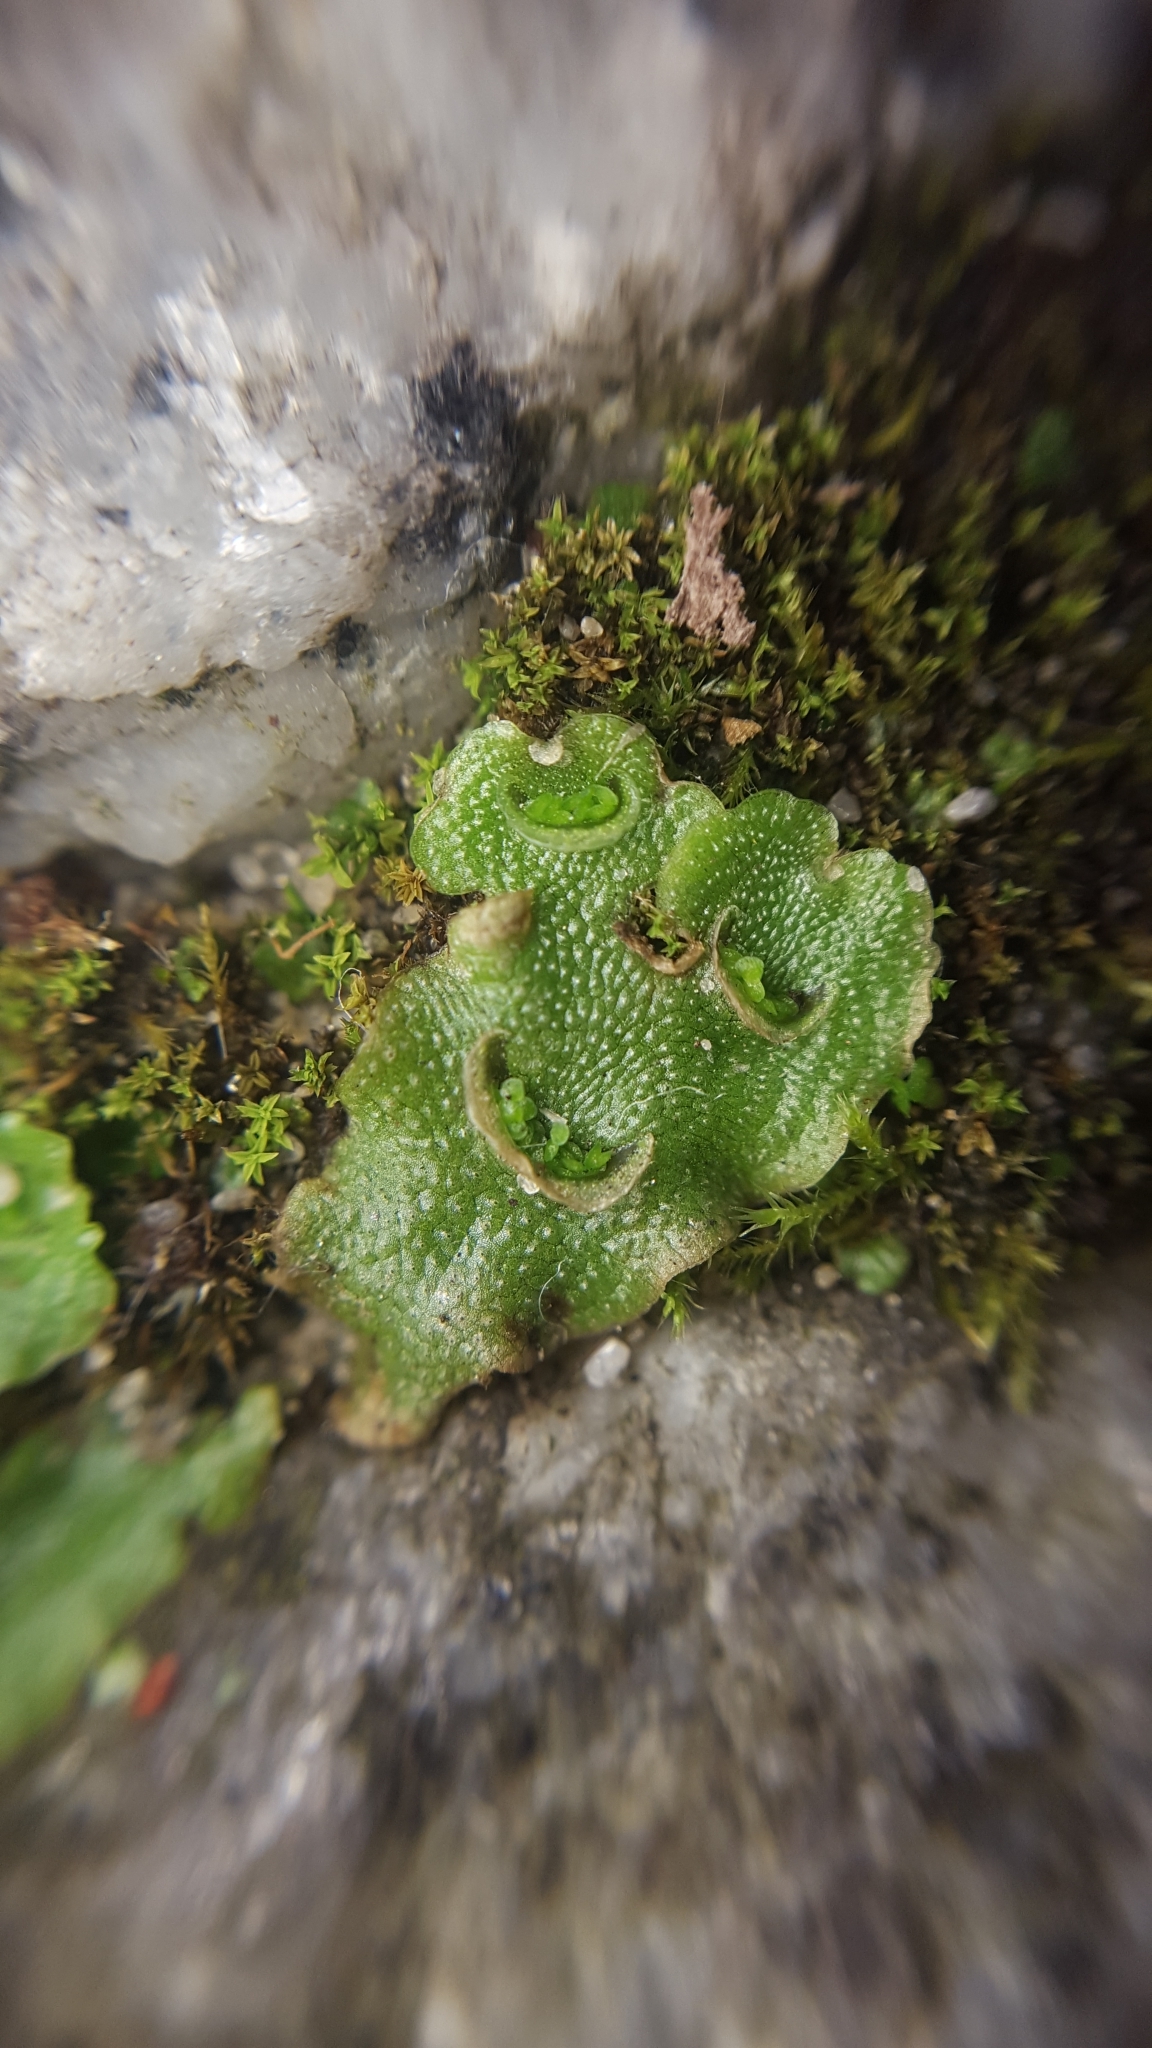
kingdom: Plantae
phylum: Marchantiophyta
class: Marchantiopsida
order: Lunulariales
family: Lunulariaceae
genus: Lunularia
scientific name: Lunularia cruciata
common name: Crescent-cup liverwort
